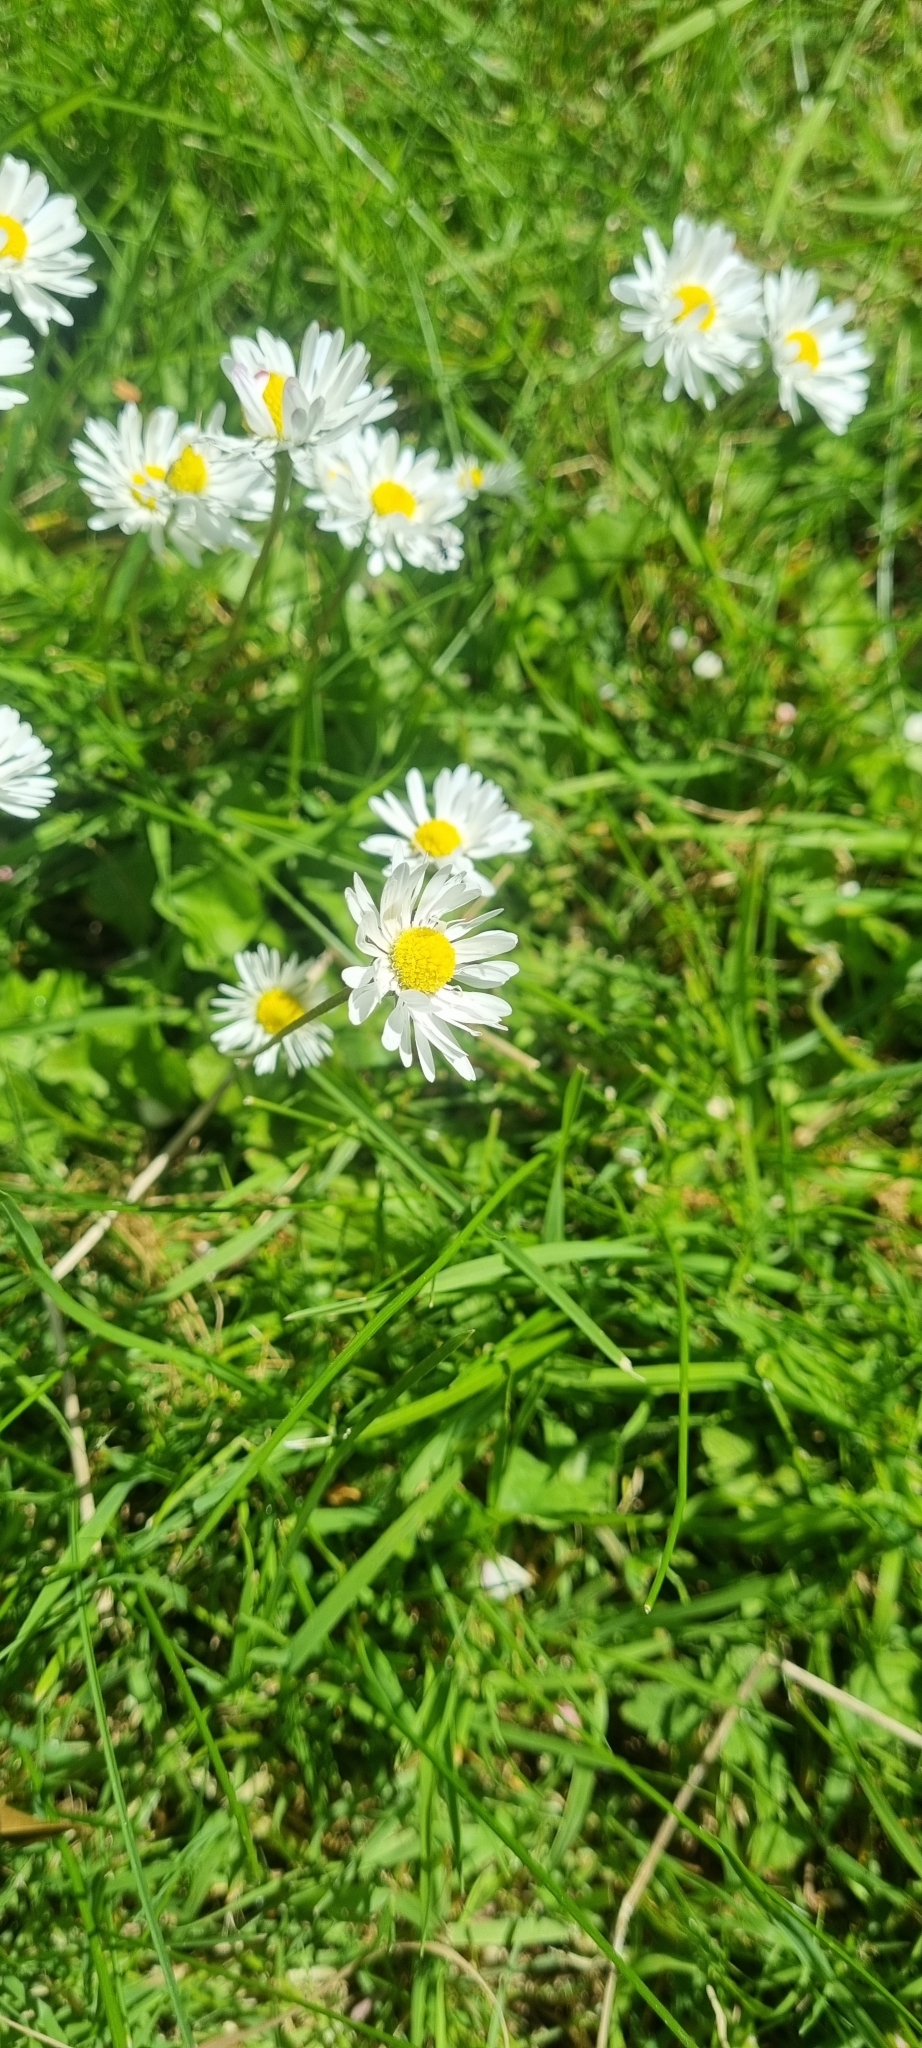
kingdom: Plantae
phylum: Tracheophyta
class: Magnoliopsida
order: Asterales
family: Asteraceae
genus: Bellis
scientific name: Bellis perennis
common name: Lawndaisy
